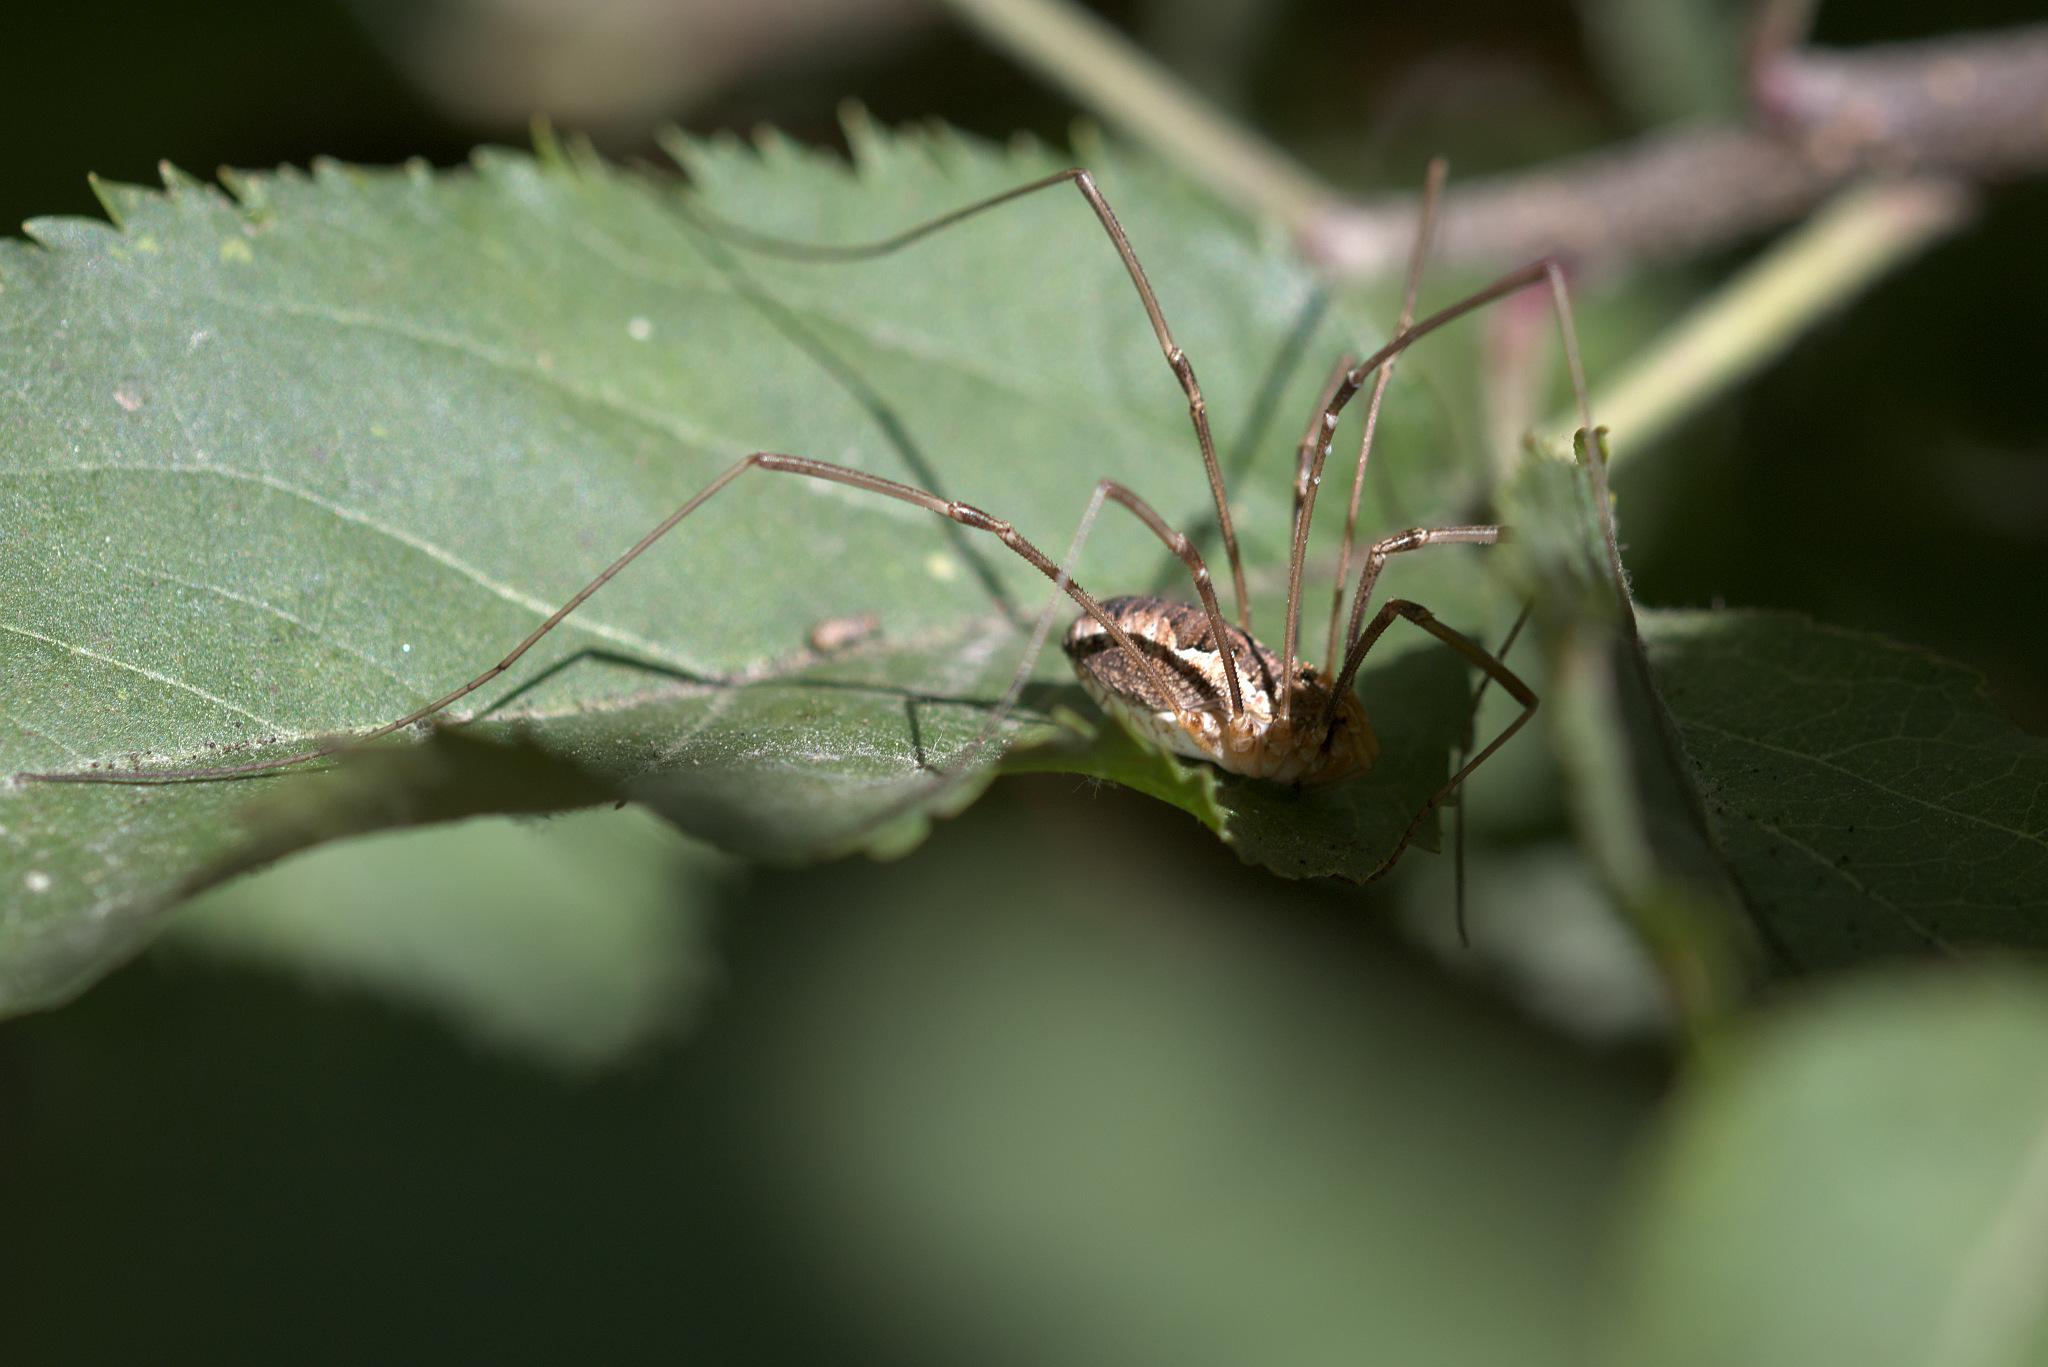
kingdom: Animalia
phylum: Arthropoda
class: Arachnida
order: Opiliones
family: Phalangiidae
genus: Phalangium
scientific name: Phalangium opilio
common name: Daddy longleg
